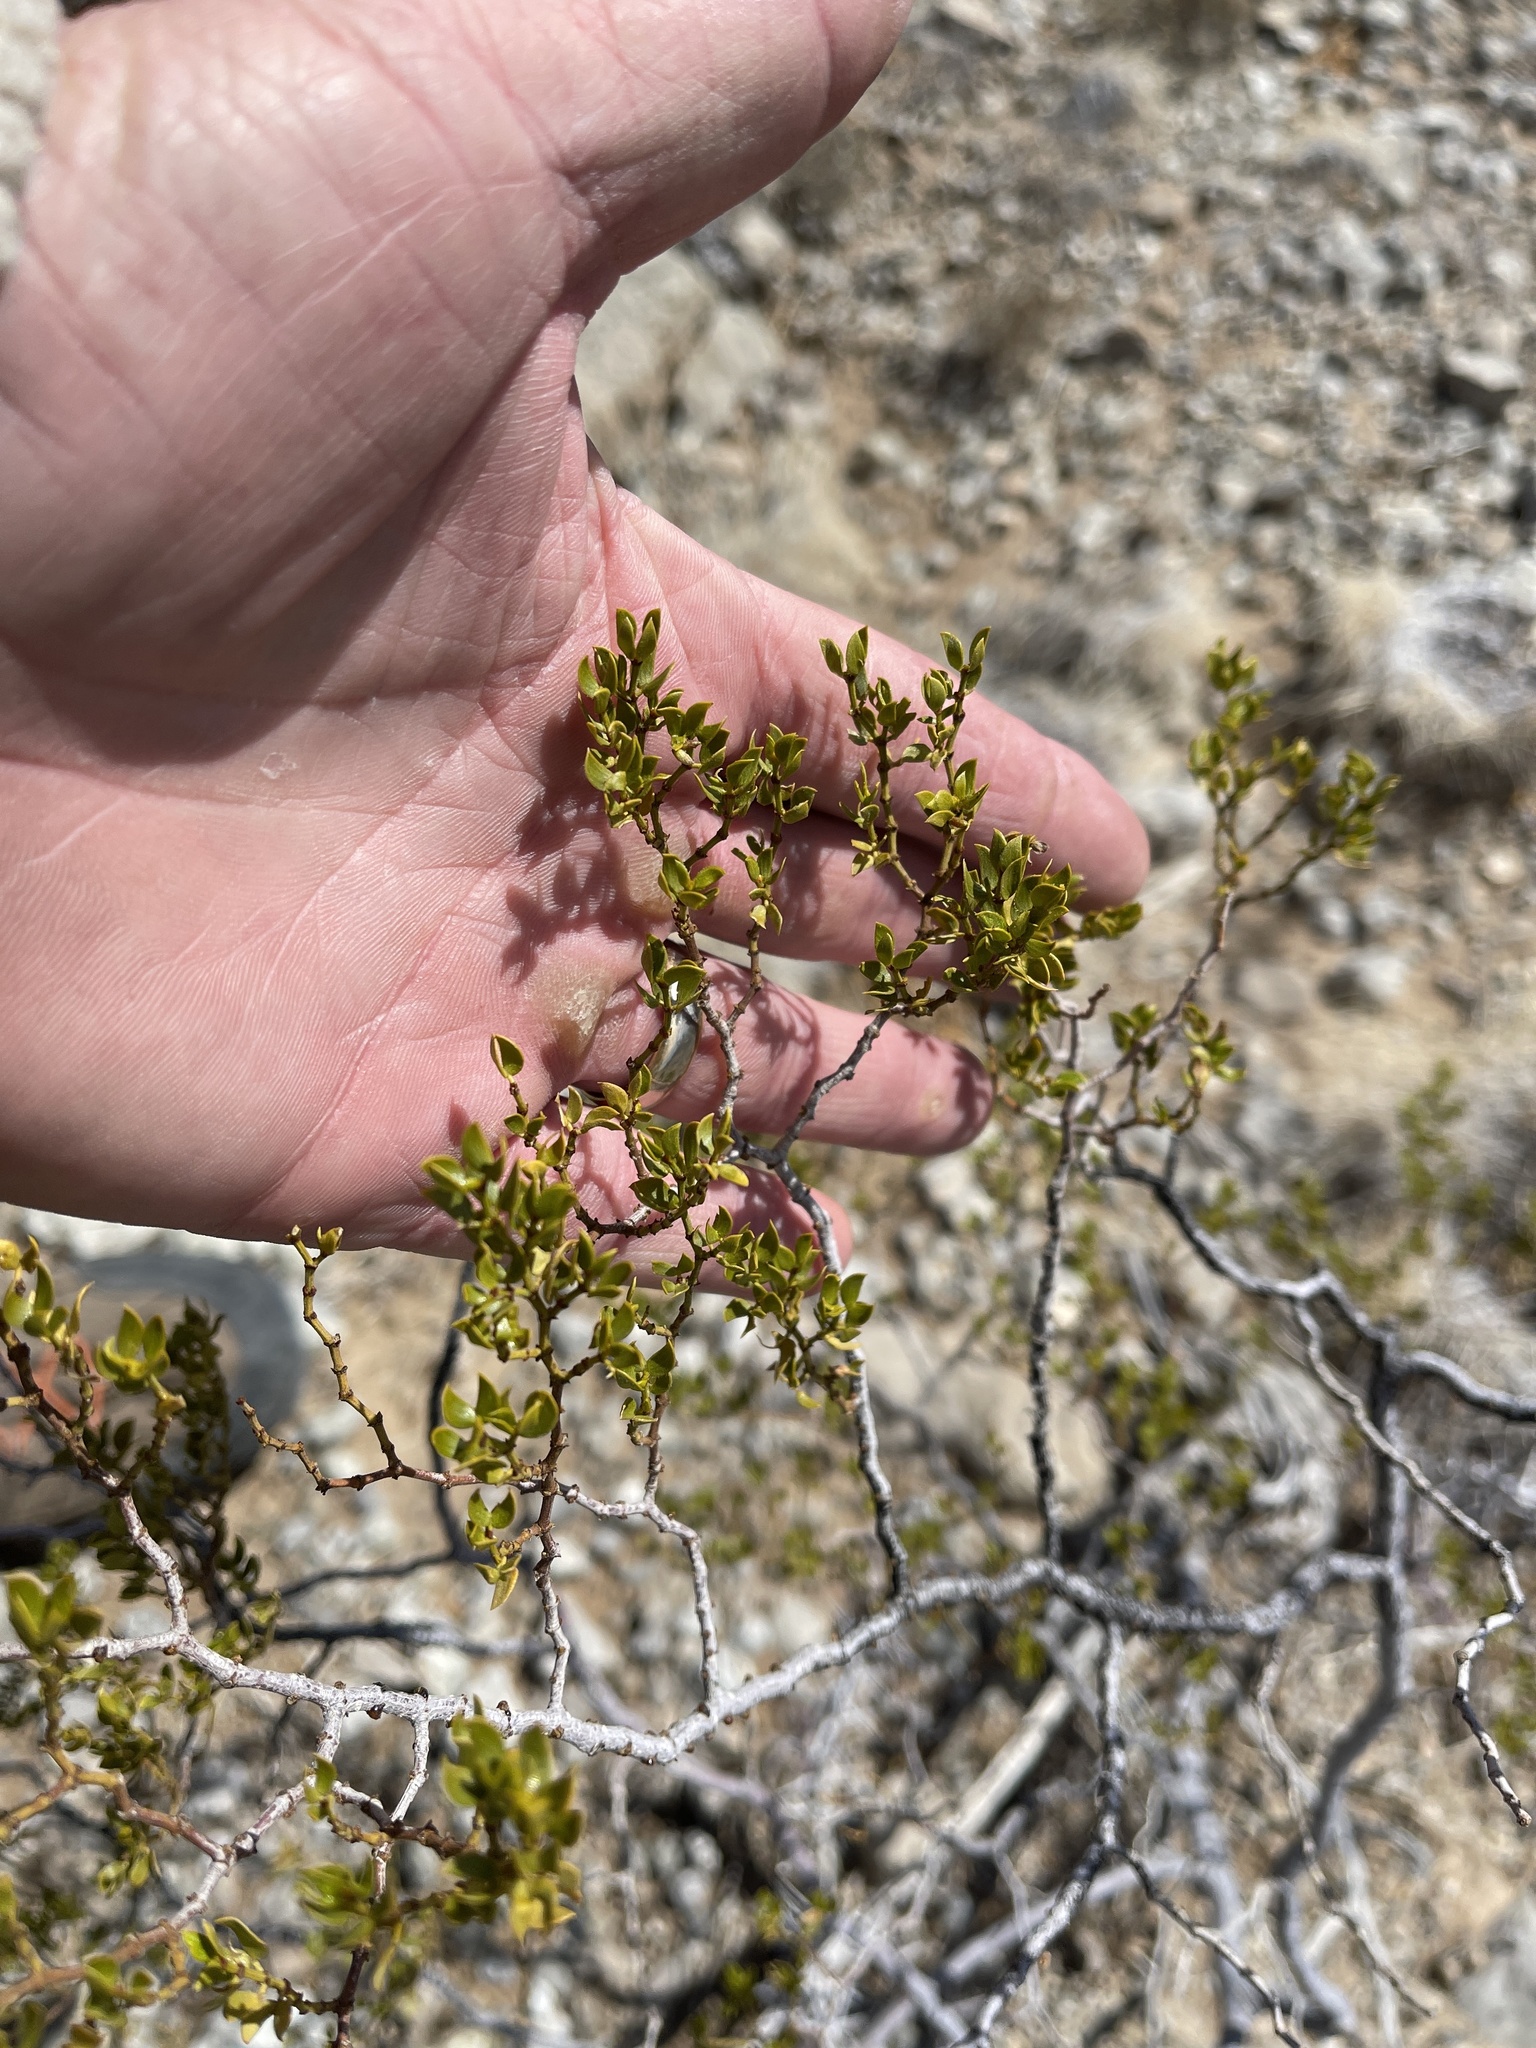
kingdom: Plantae
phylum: Tracheophyta
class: Magnoliopsida
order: Zygophyllales
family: Zygophyllaceae
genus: Larrea
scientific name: Larrea tridentata
